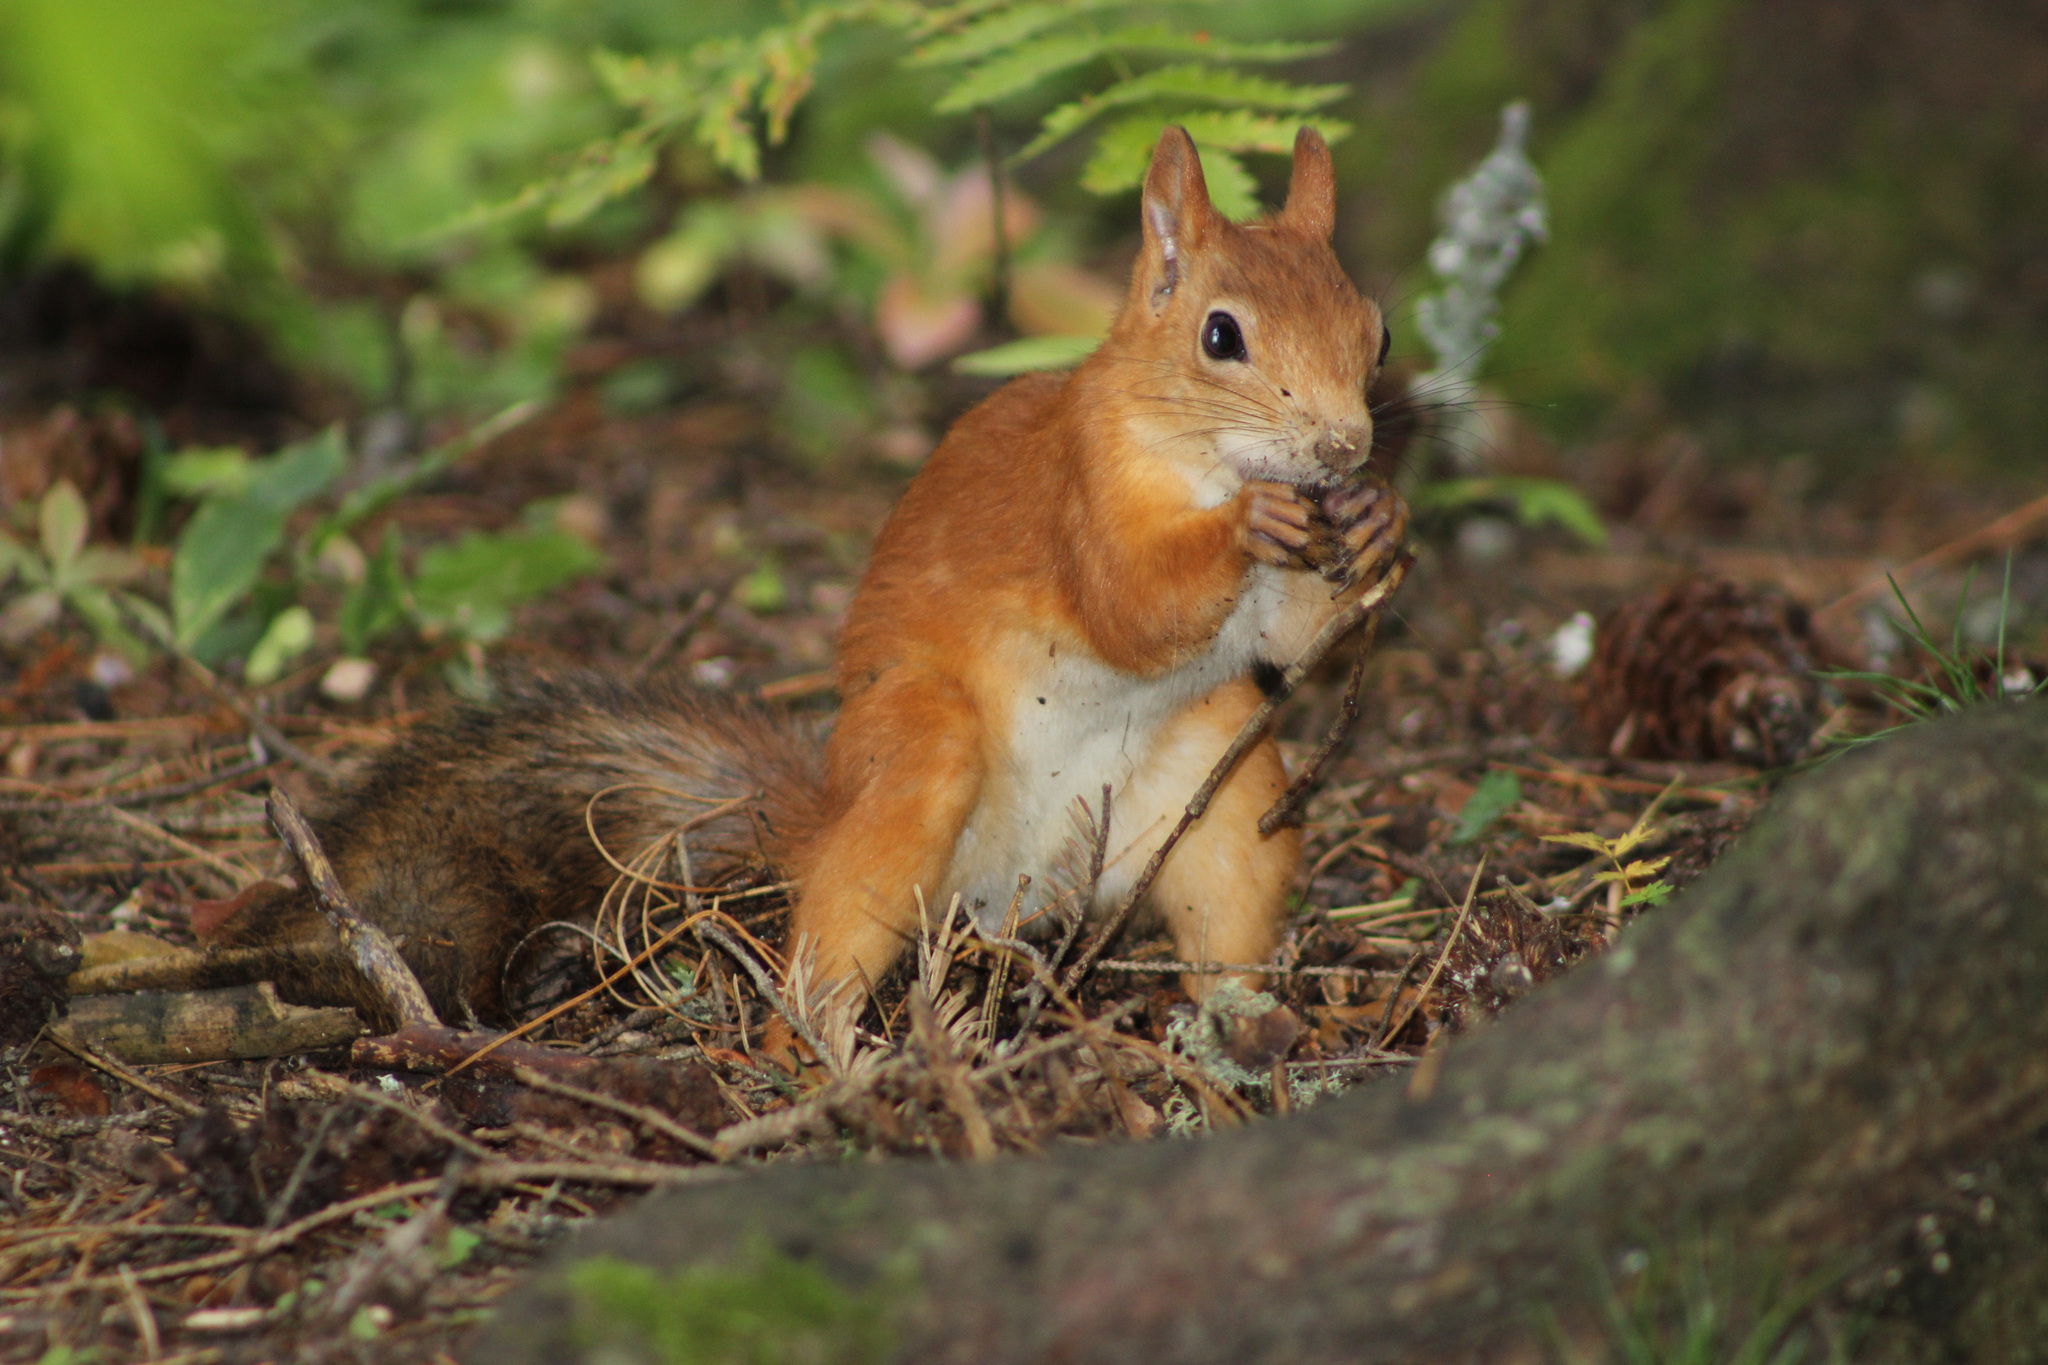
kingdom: Animalia
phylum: Chordata
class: Mammalia
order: Rodentia
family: Sciuridae
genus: Sciurus
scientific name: Sciurus vulgaris
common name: Eurasian red squirrel
